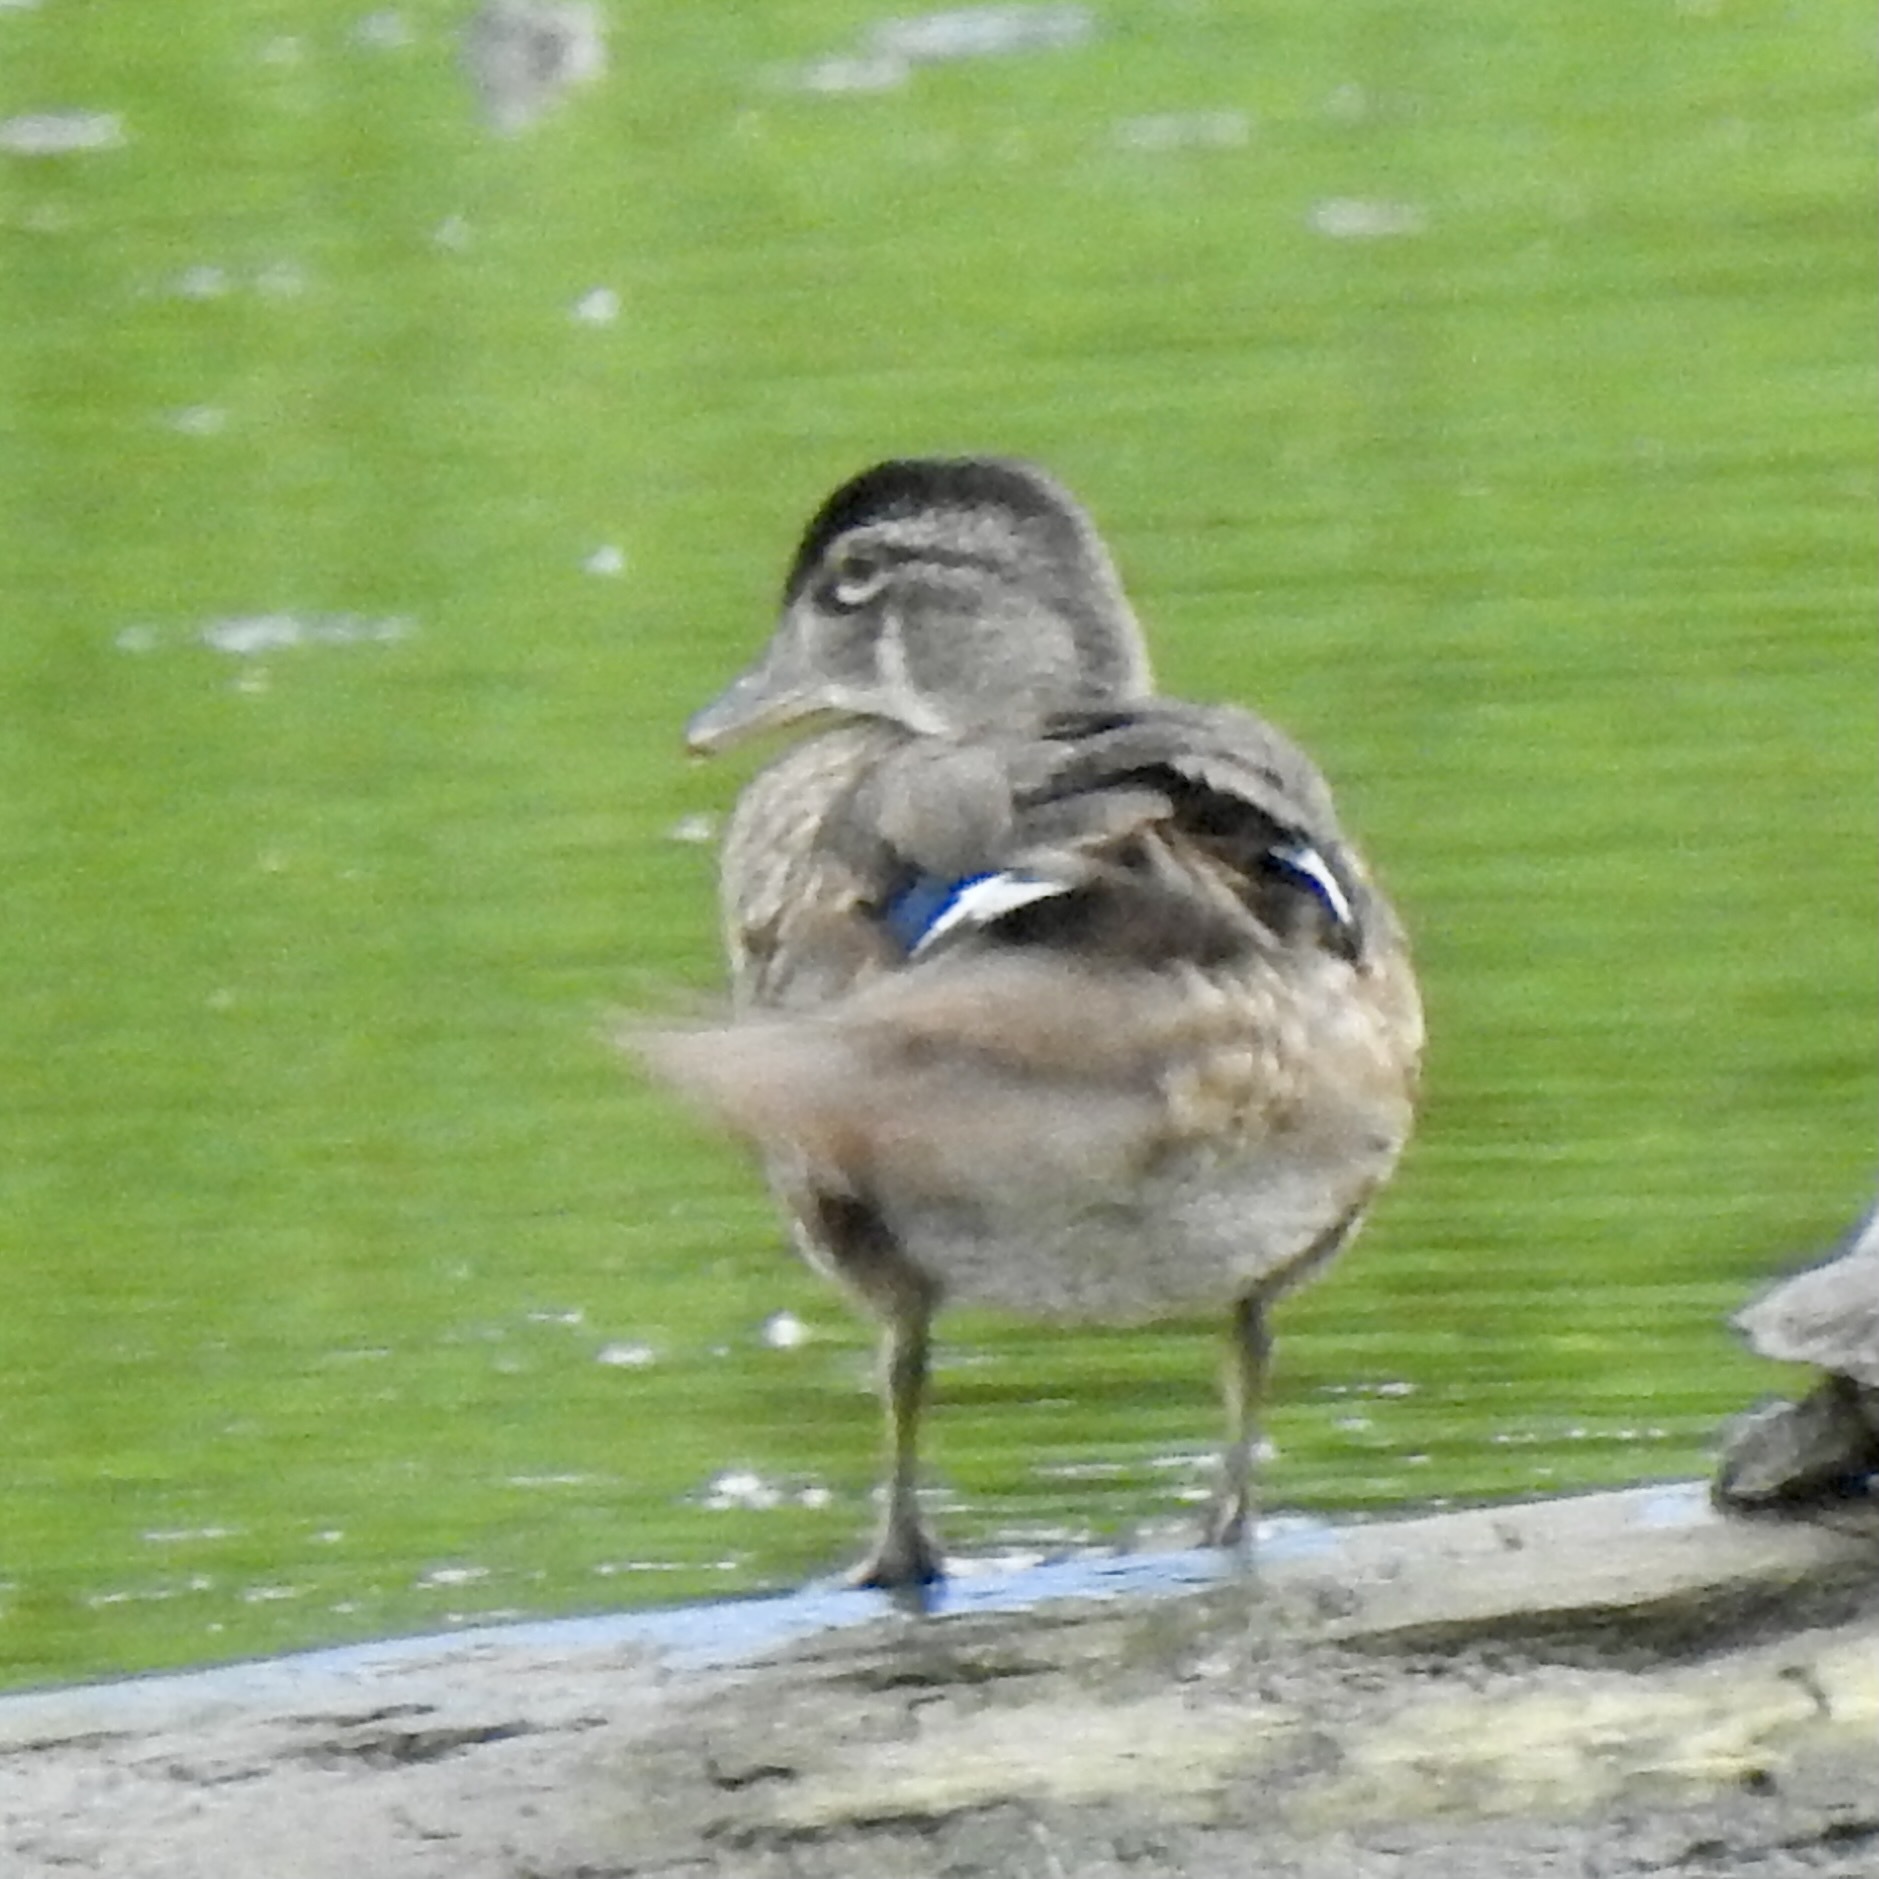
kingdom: Animalia
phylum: Chordata
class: Aves
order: Anseriformes
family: Anatidae
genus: Aix
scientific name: Aix sponsa
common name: Wood duck
